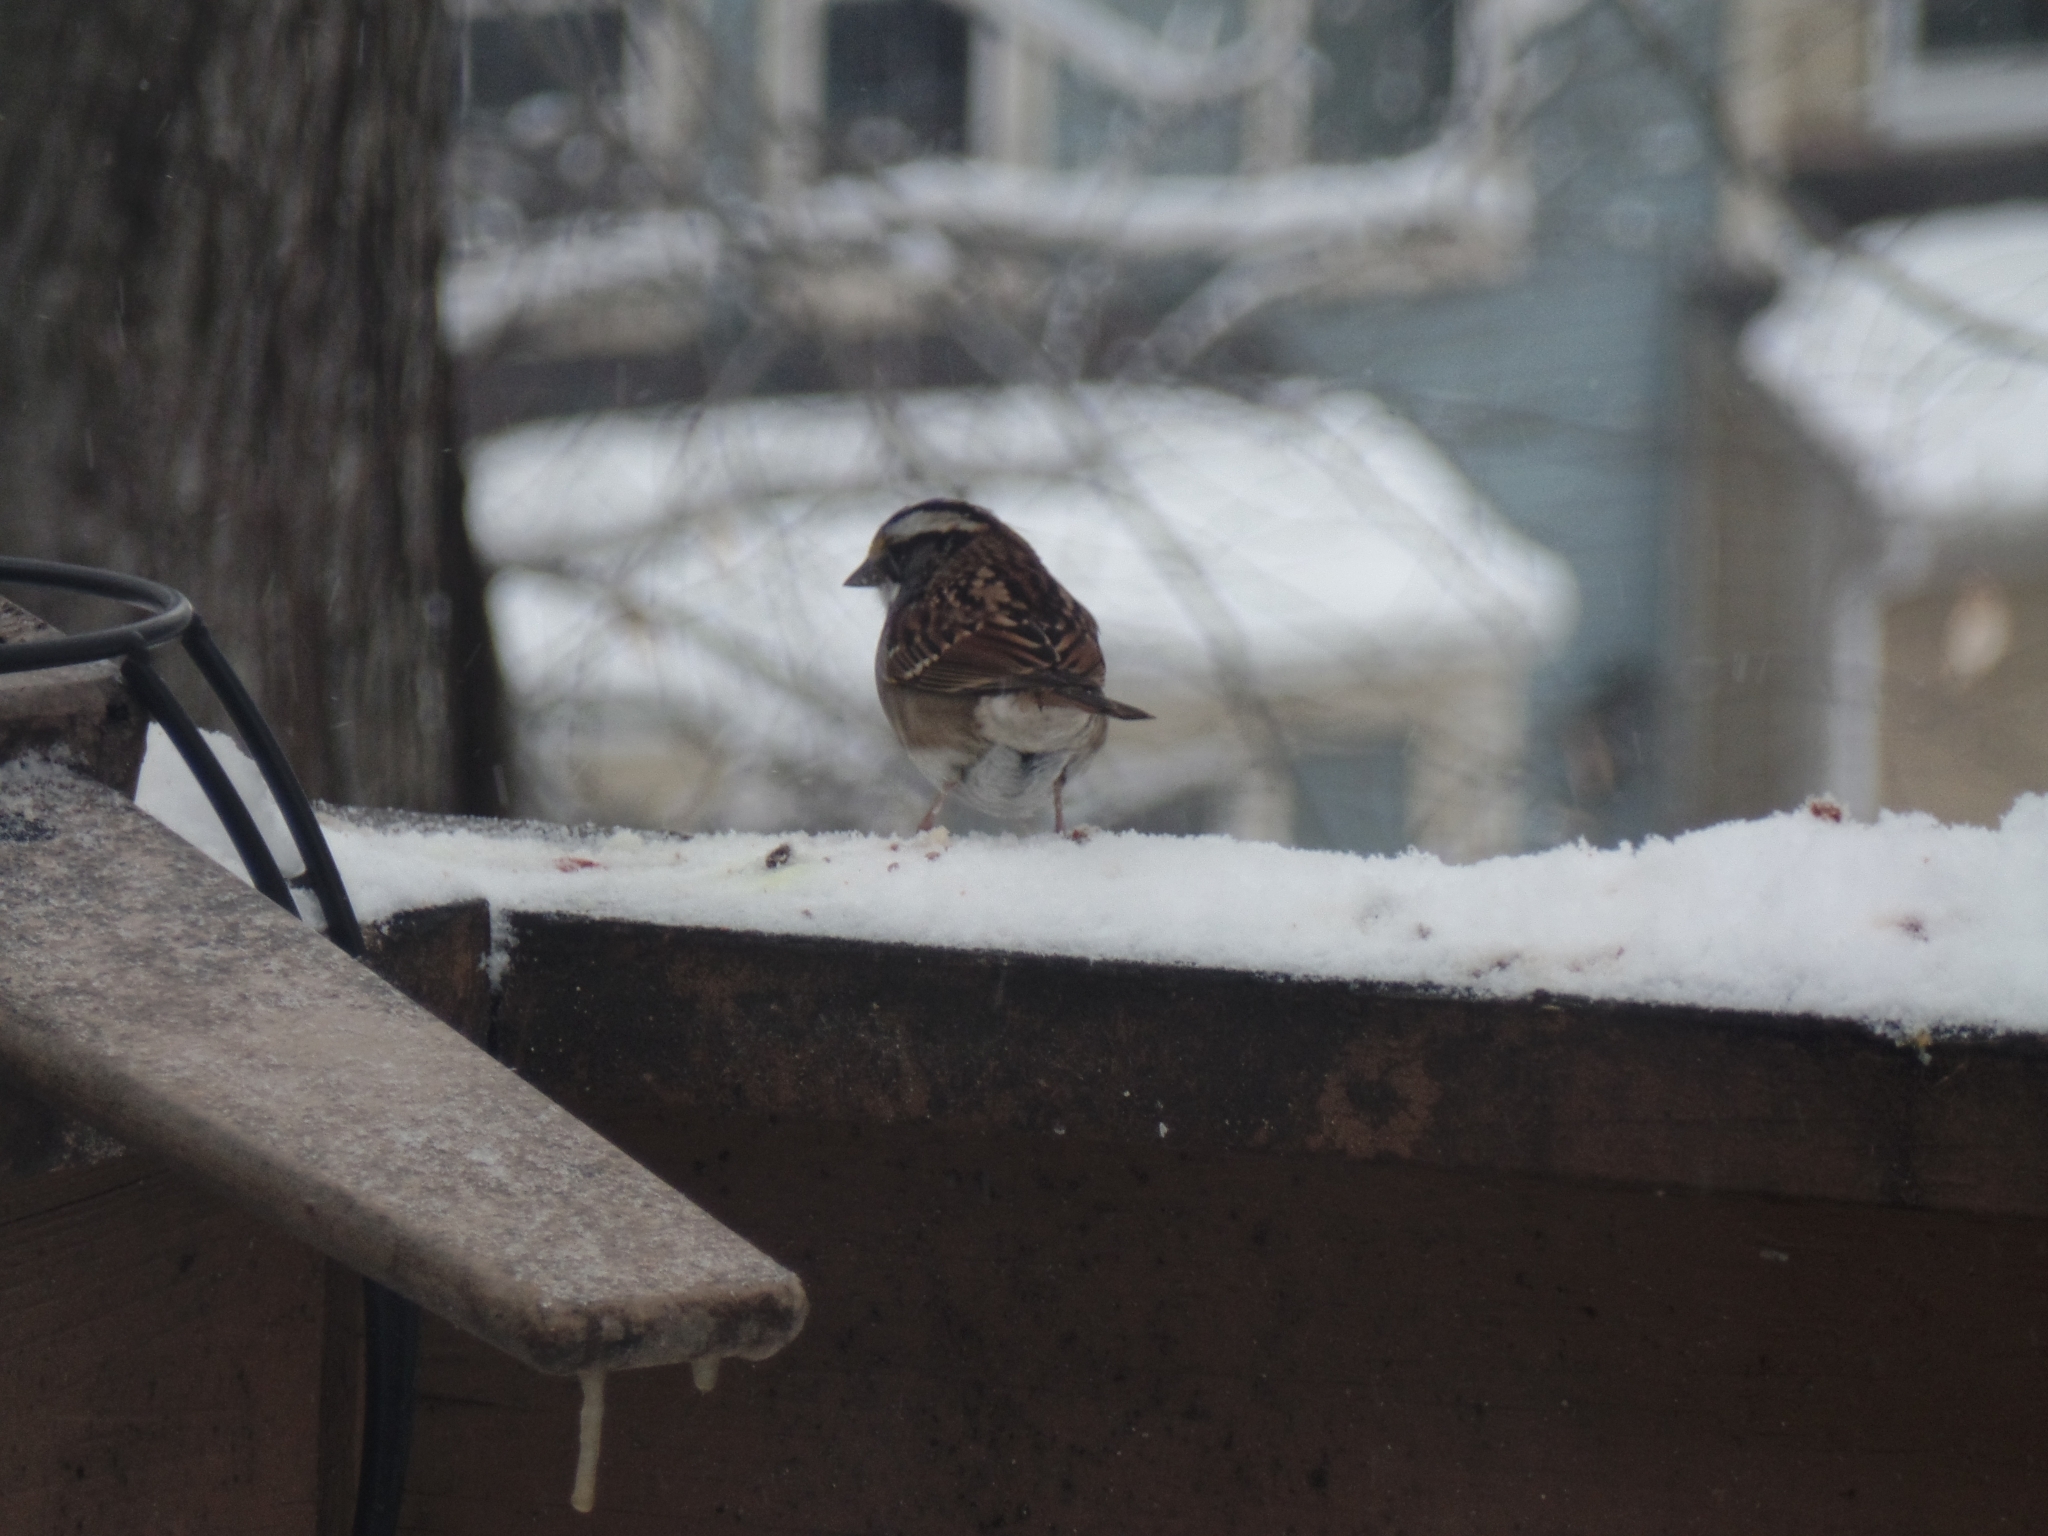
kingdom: Animalia
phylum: Chordata
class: Aves
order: Passeriformes
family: Passerellidae
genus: Zonotrichia
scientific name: Zonotrichia albicollis
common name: White-throated sparrow
